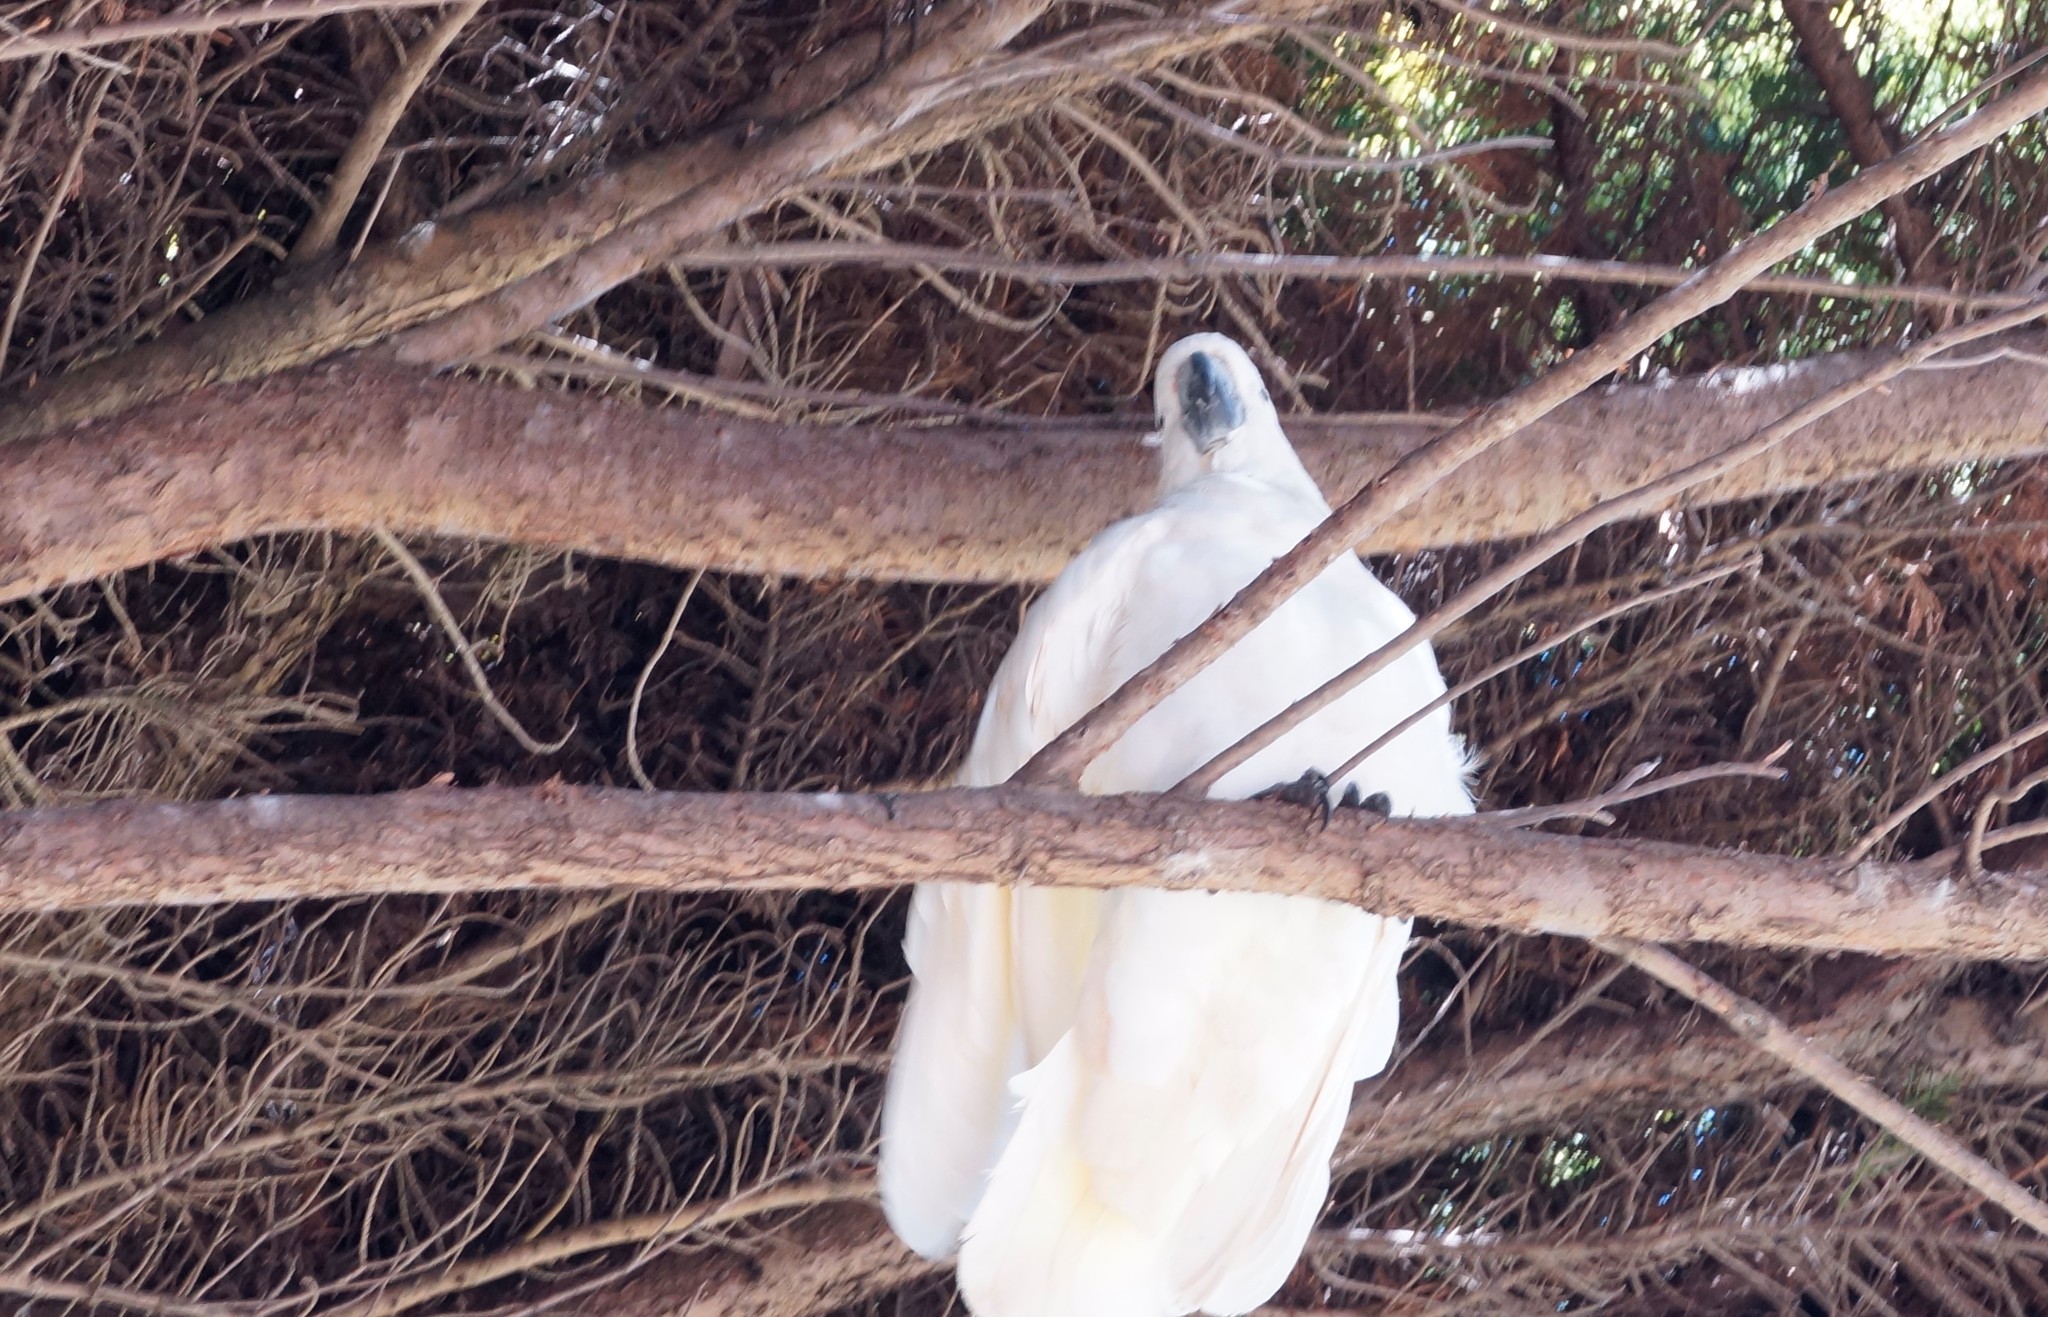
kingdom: Animalia
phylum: Chordata
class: Aves
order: Psittaciformes
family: Psittacidae
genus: Cacatua
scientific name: Cacatua galerita
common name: Sulphur-crested cockatoo
